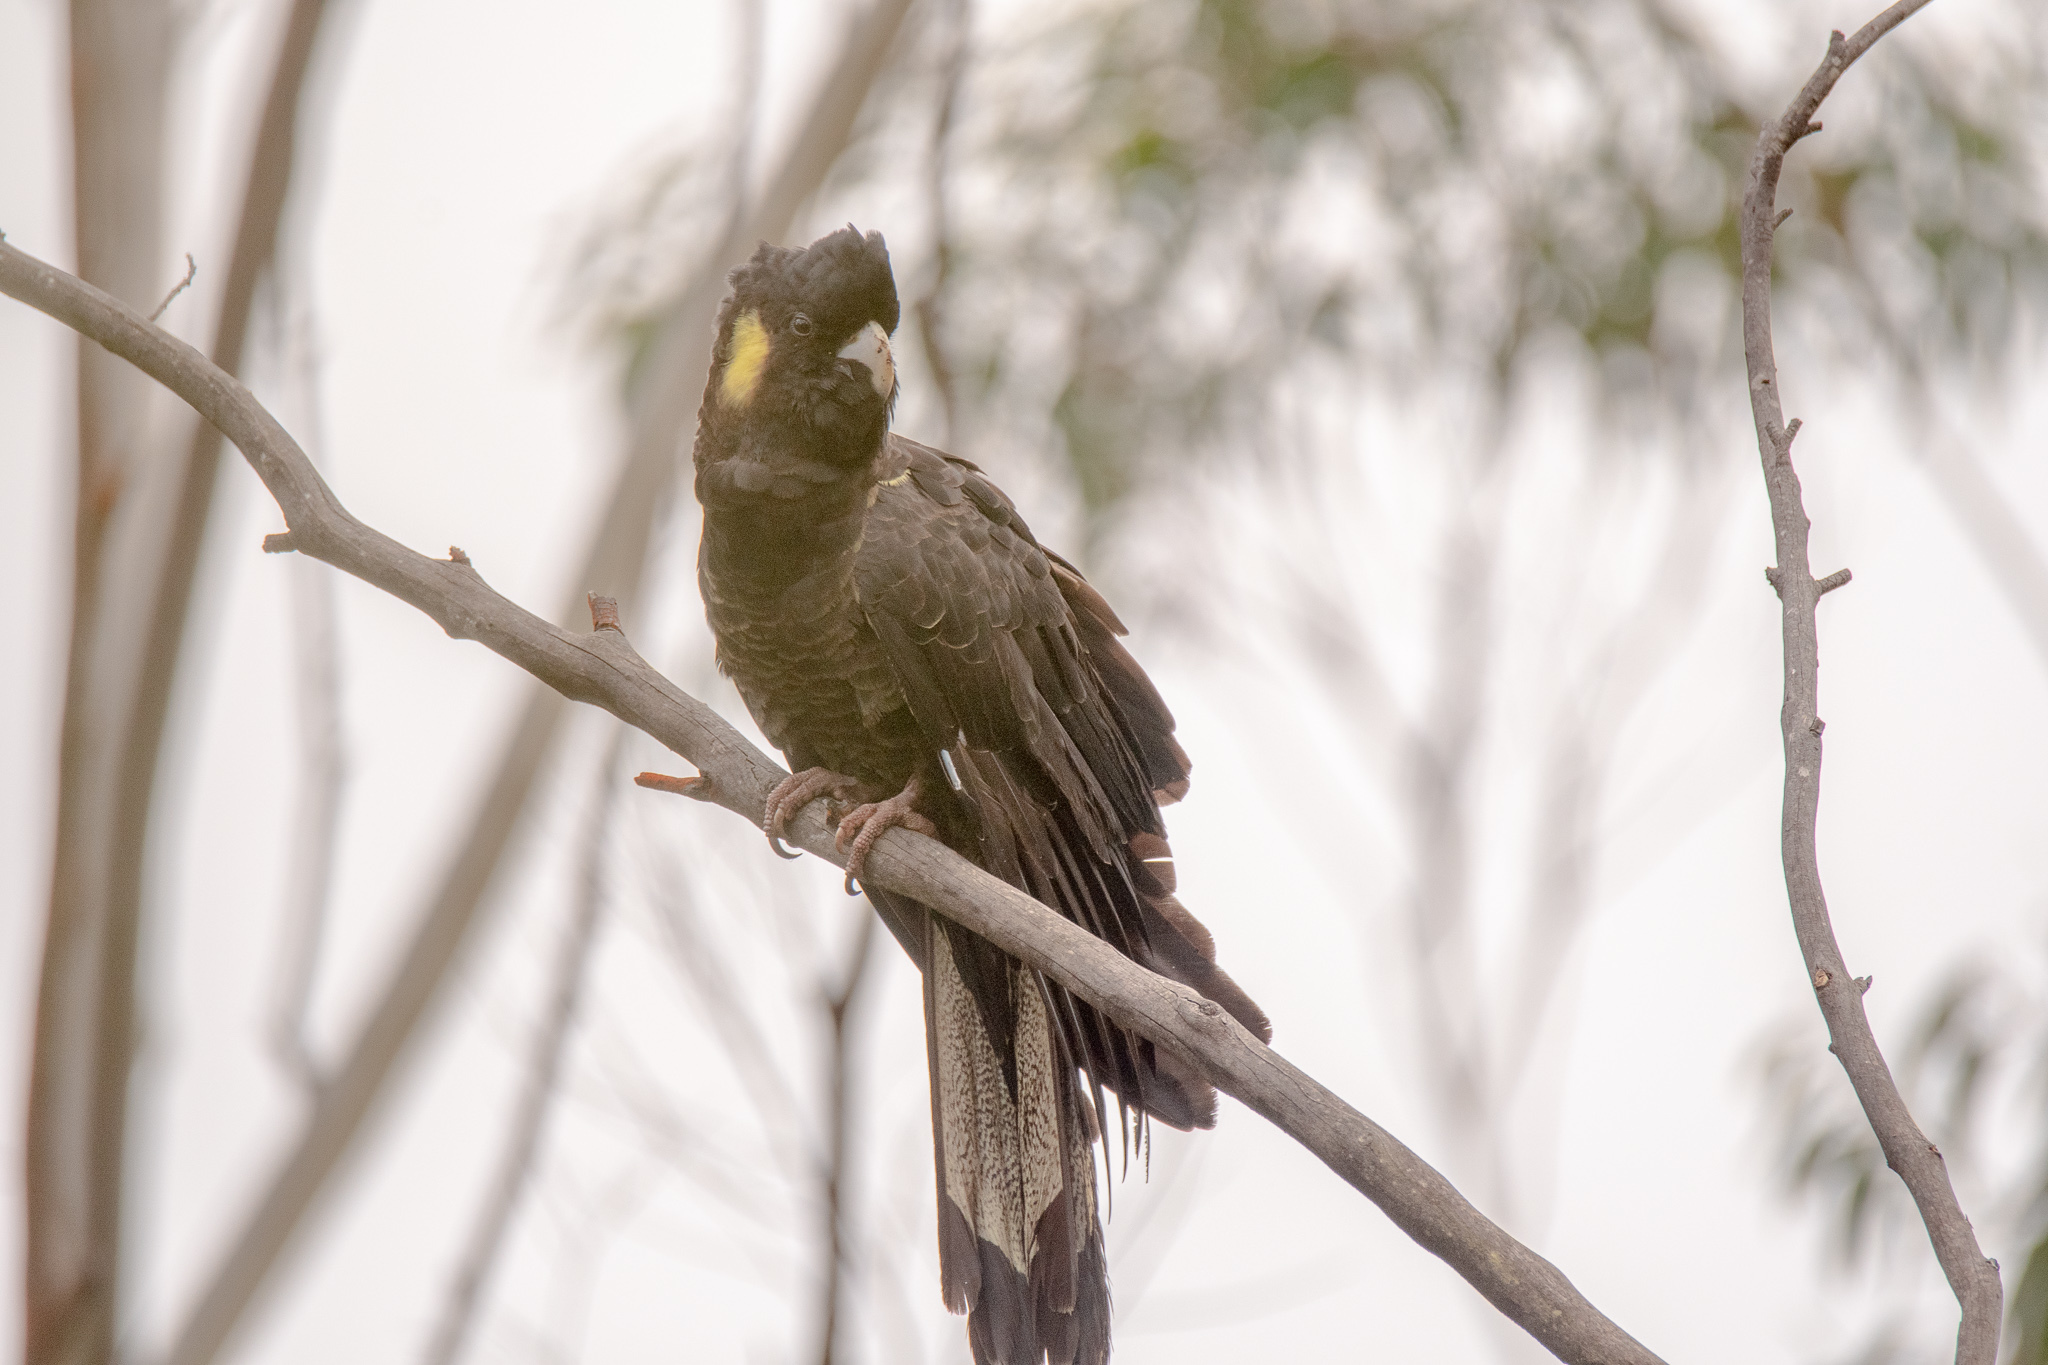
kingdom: Animalia
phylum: Chordata
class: Aves
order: Psittaciformes
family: Cacatuidae
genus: Zanda
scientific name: Zanda funerea
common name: Yellow-tailed black-cockatoo
